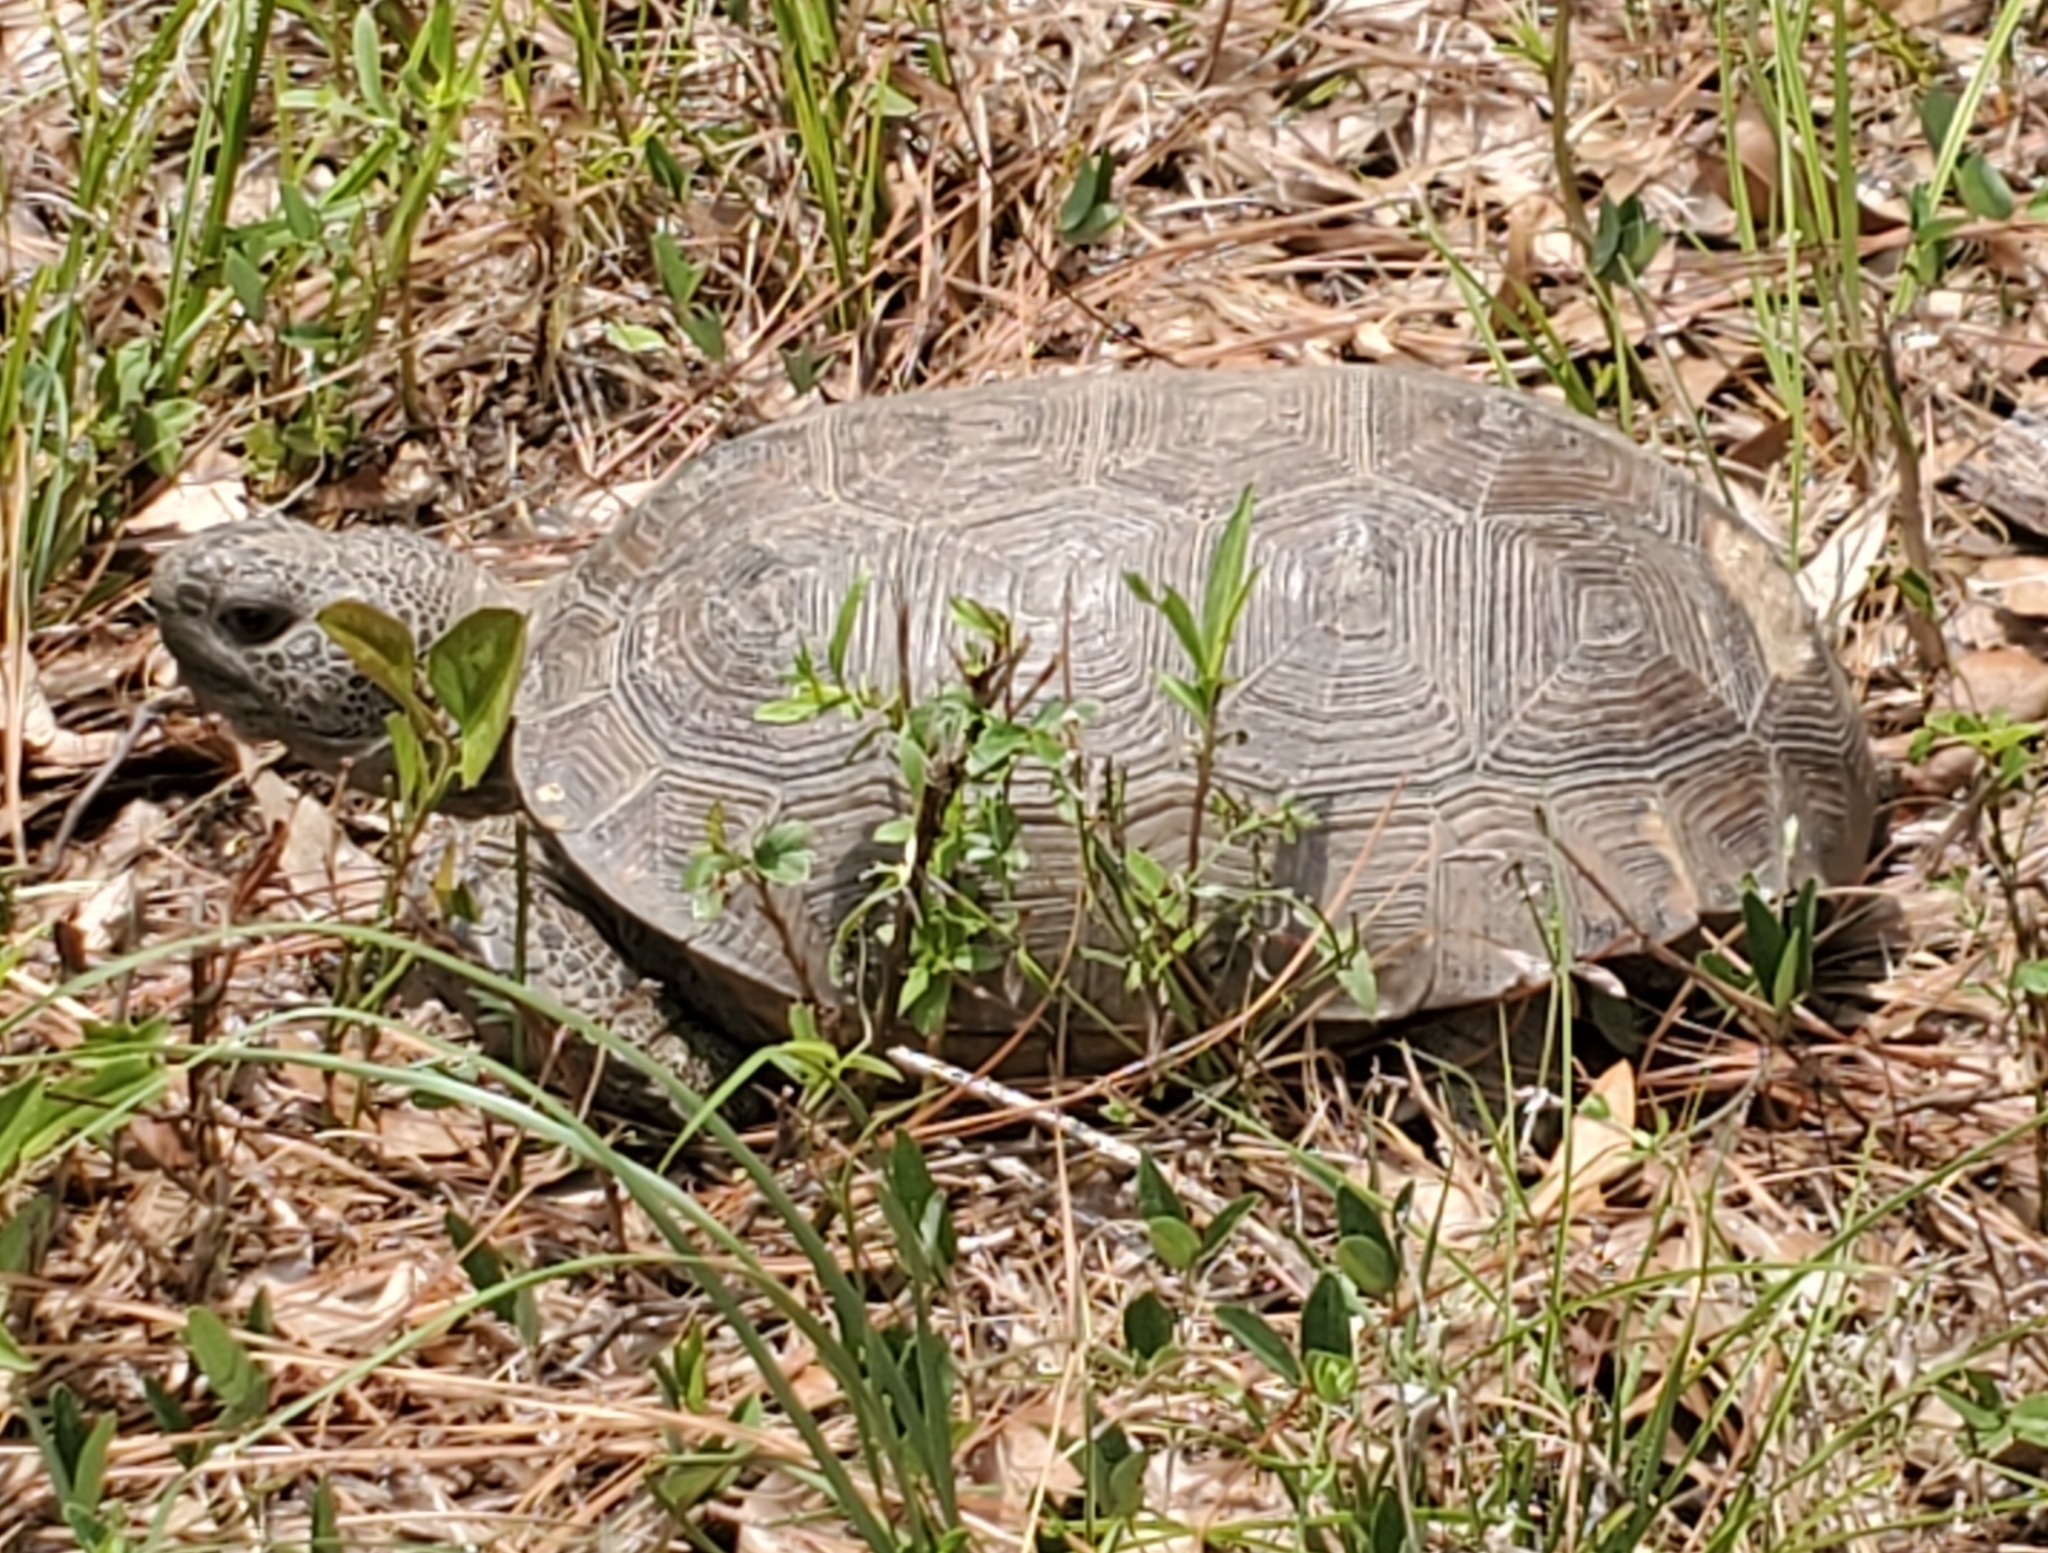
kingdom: Animalia
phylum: Chordata
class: Testudines
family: Testudinidae
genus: Gopherus
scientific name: Gopherus polyphemus
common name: Florida gopher tortoise
